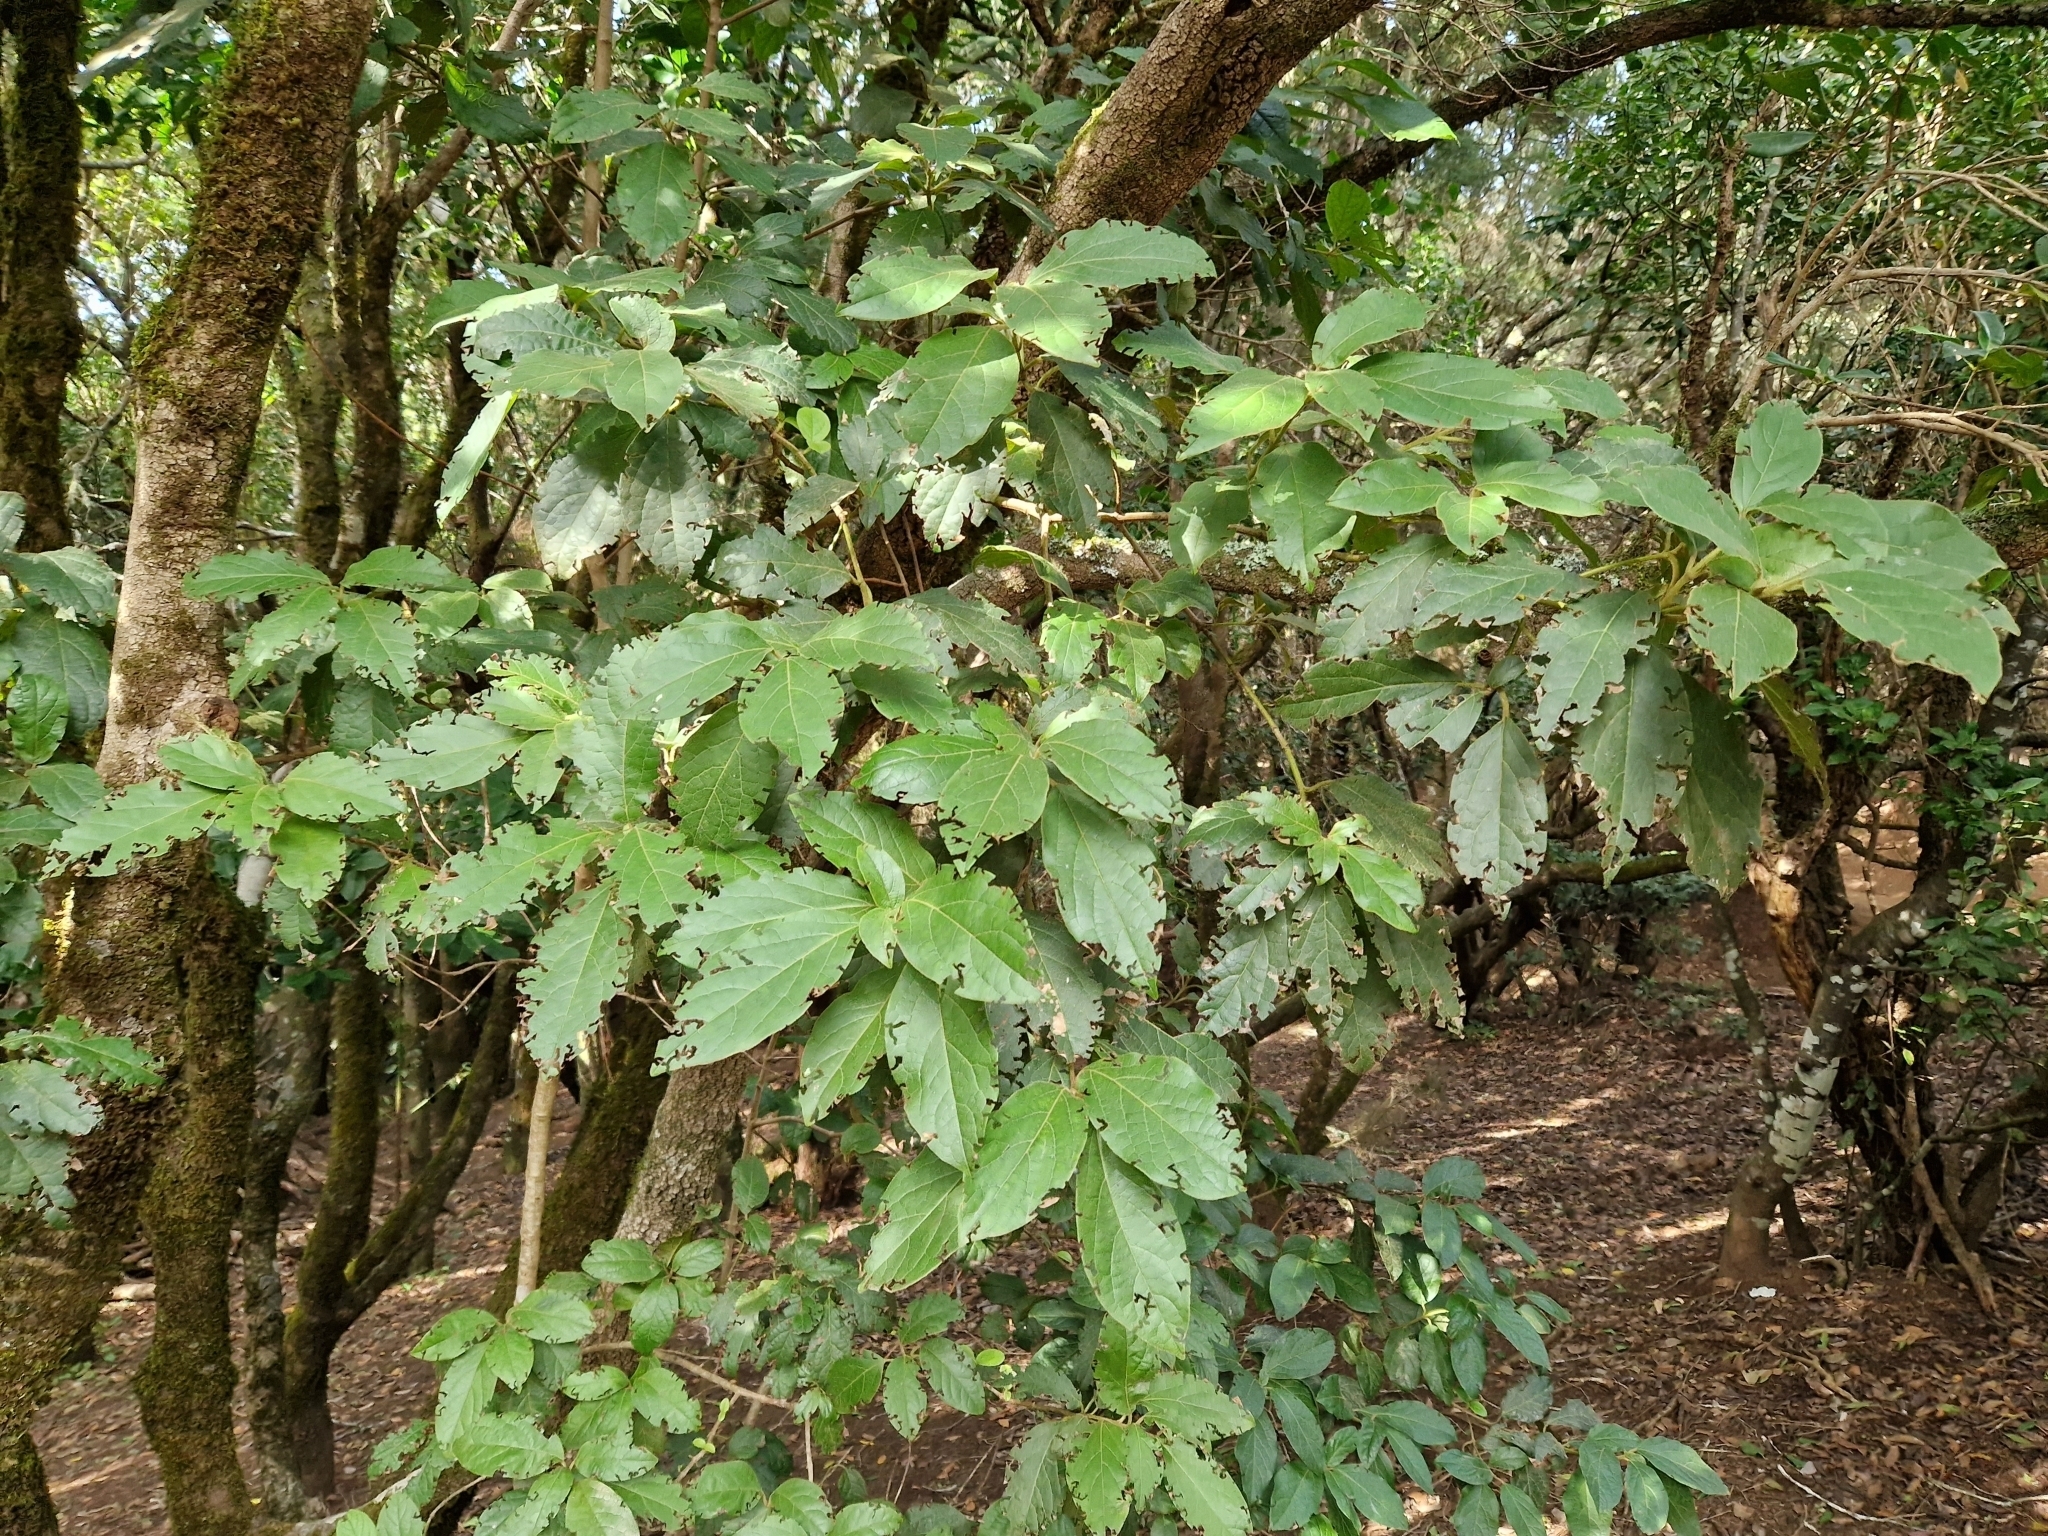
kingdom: Plantae
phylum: Tracheophyta
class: Magnoliopsida
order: Dipsacales
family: Viburnaceae
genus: Viburnum
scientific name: Viburnum rugosum
